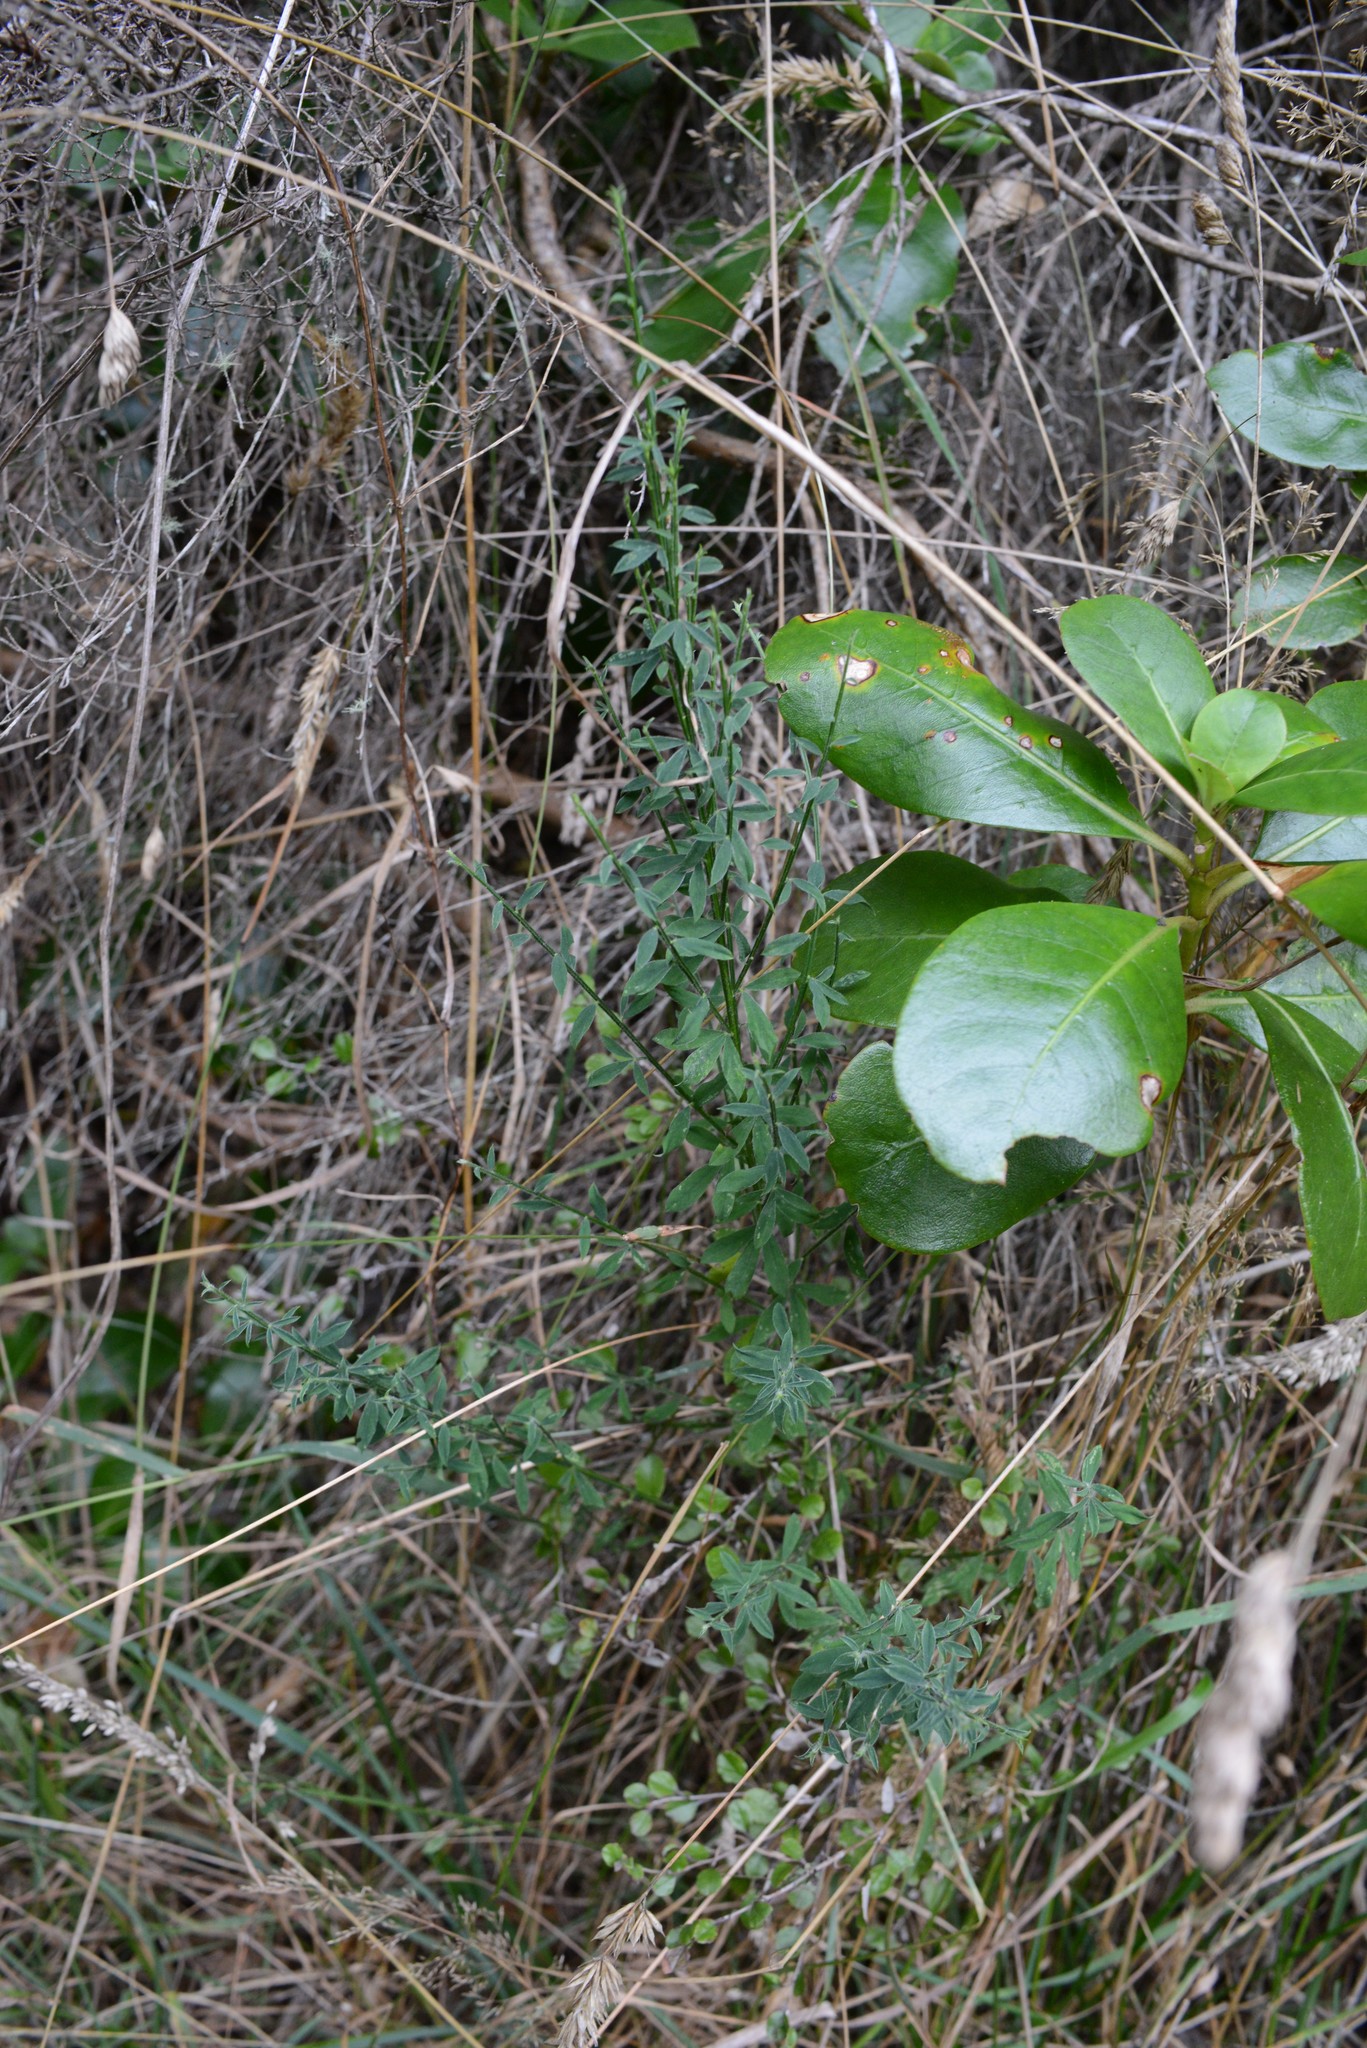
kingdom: Plantae
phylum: Tracheophyta
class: Magnoliopsida
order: Fabales
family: Fabaceae
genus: Cytisus
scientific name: Cytisus scoparius
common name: Scotch broom
